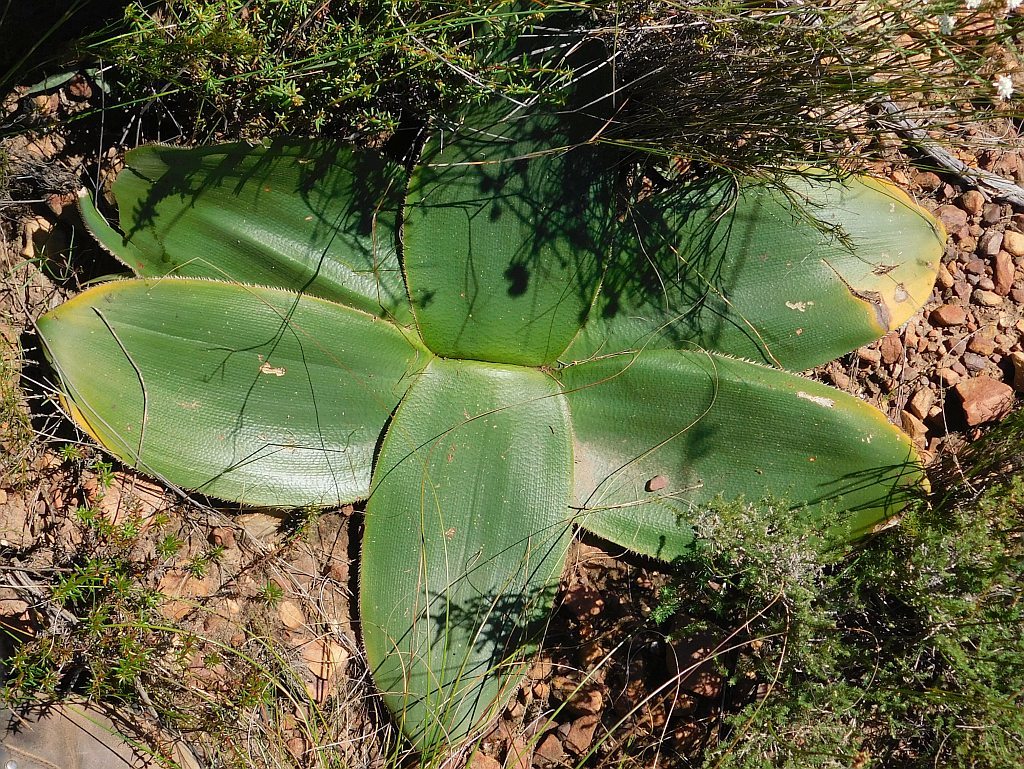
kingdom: Plantae
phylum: Tracheophyta
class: Liliopsida
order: Asparagales
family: Amaryllidaceae
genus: Brunsvigia
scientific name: Brunsvigia orientalis
